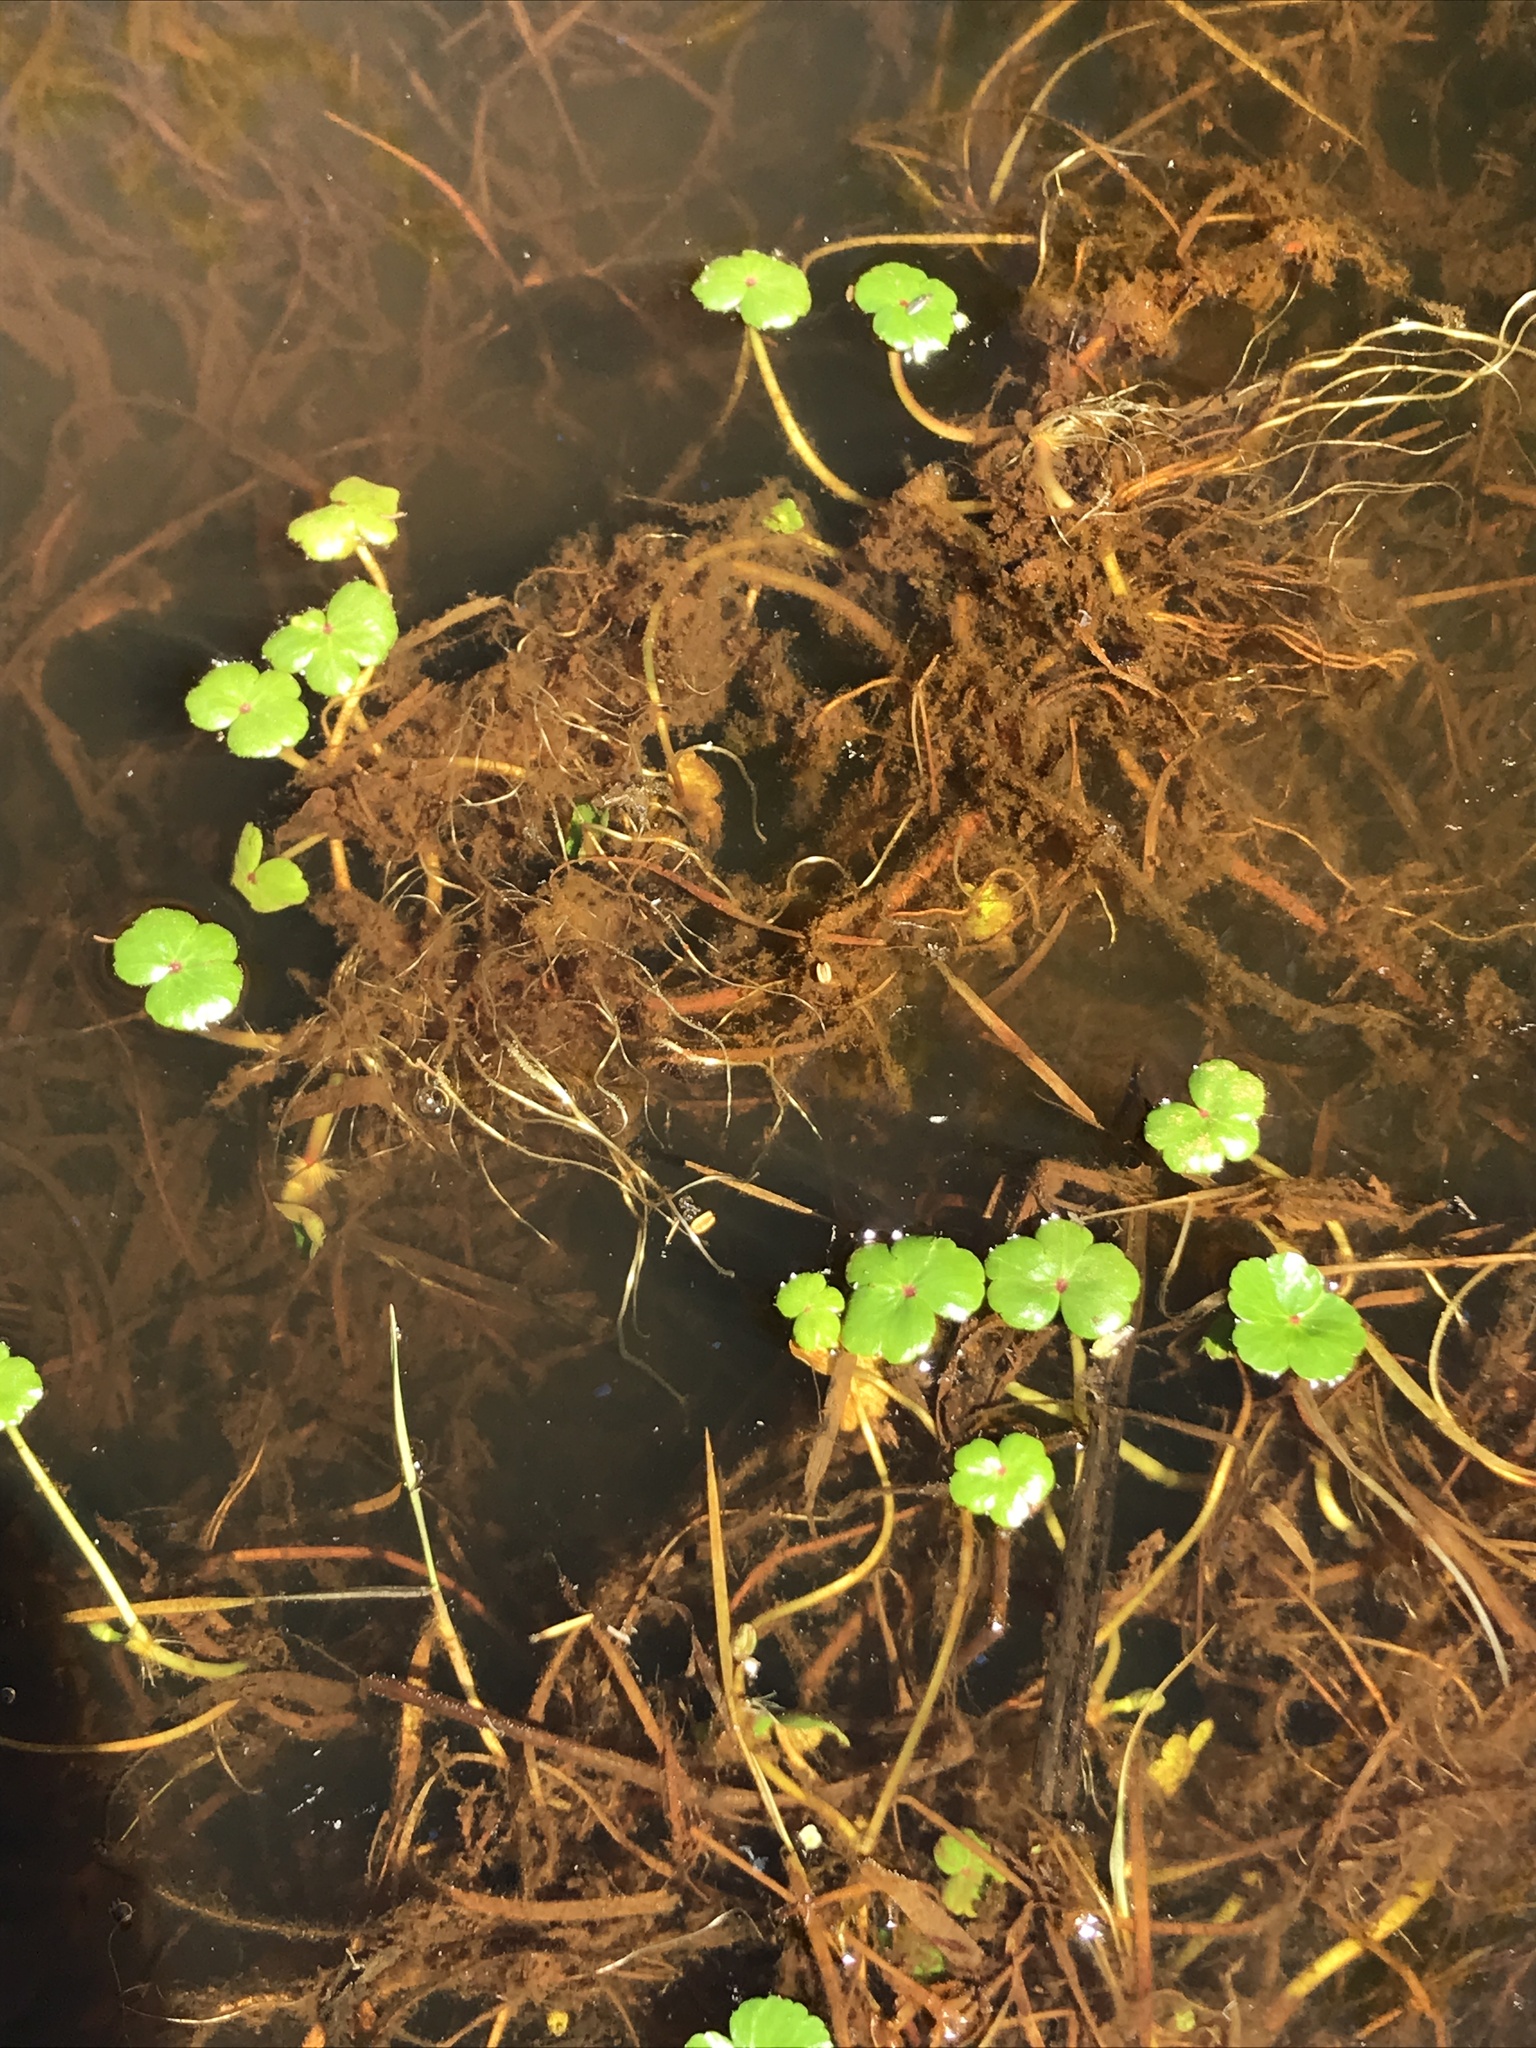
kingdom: Plantae
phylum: Tracheophyta
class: Magnoliopsida
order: Apiales
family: Araliaceae
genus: Hydrocotyle
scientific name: Hydrocotyle ranunculoides
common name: Floating pennywort
